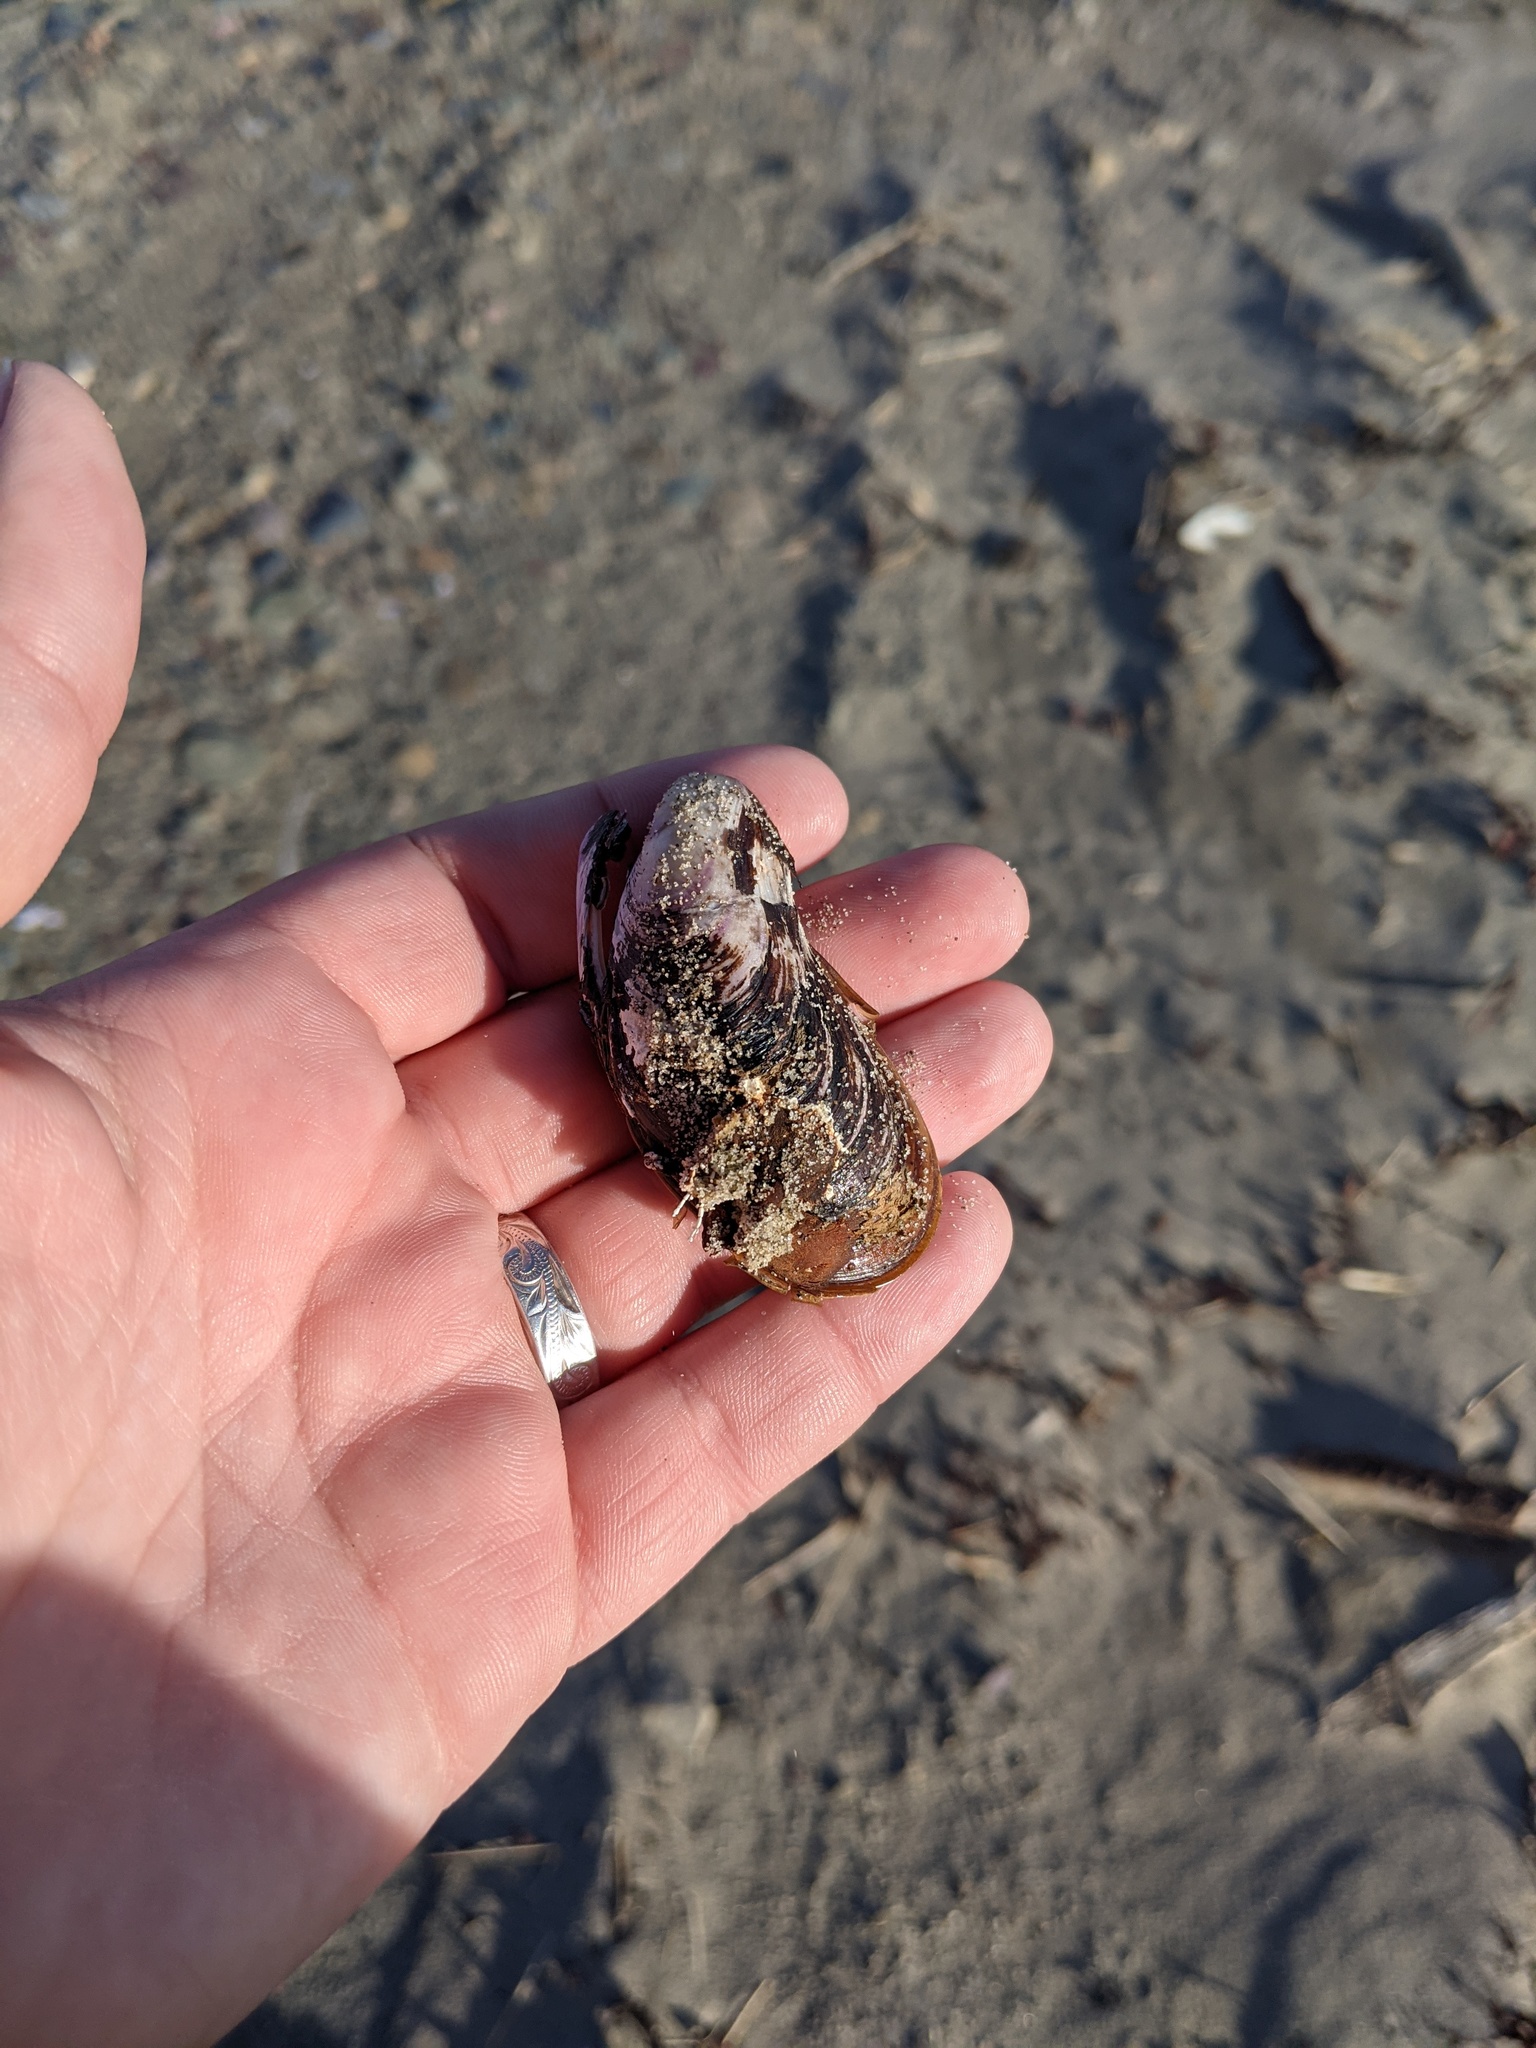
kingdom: Animalia
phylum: Mollusca
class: Bivalvia
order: Mytilida
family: Mytilidae
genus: Mytilus
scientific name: Mytilus edulis
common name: Blue mussel
